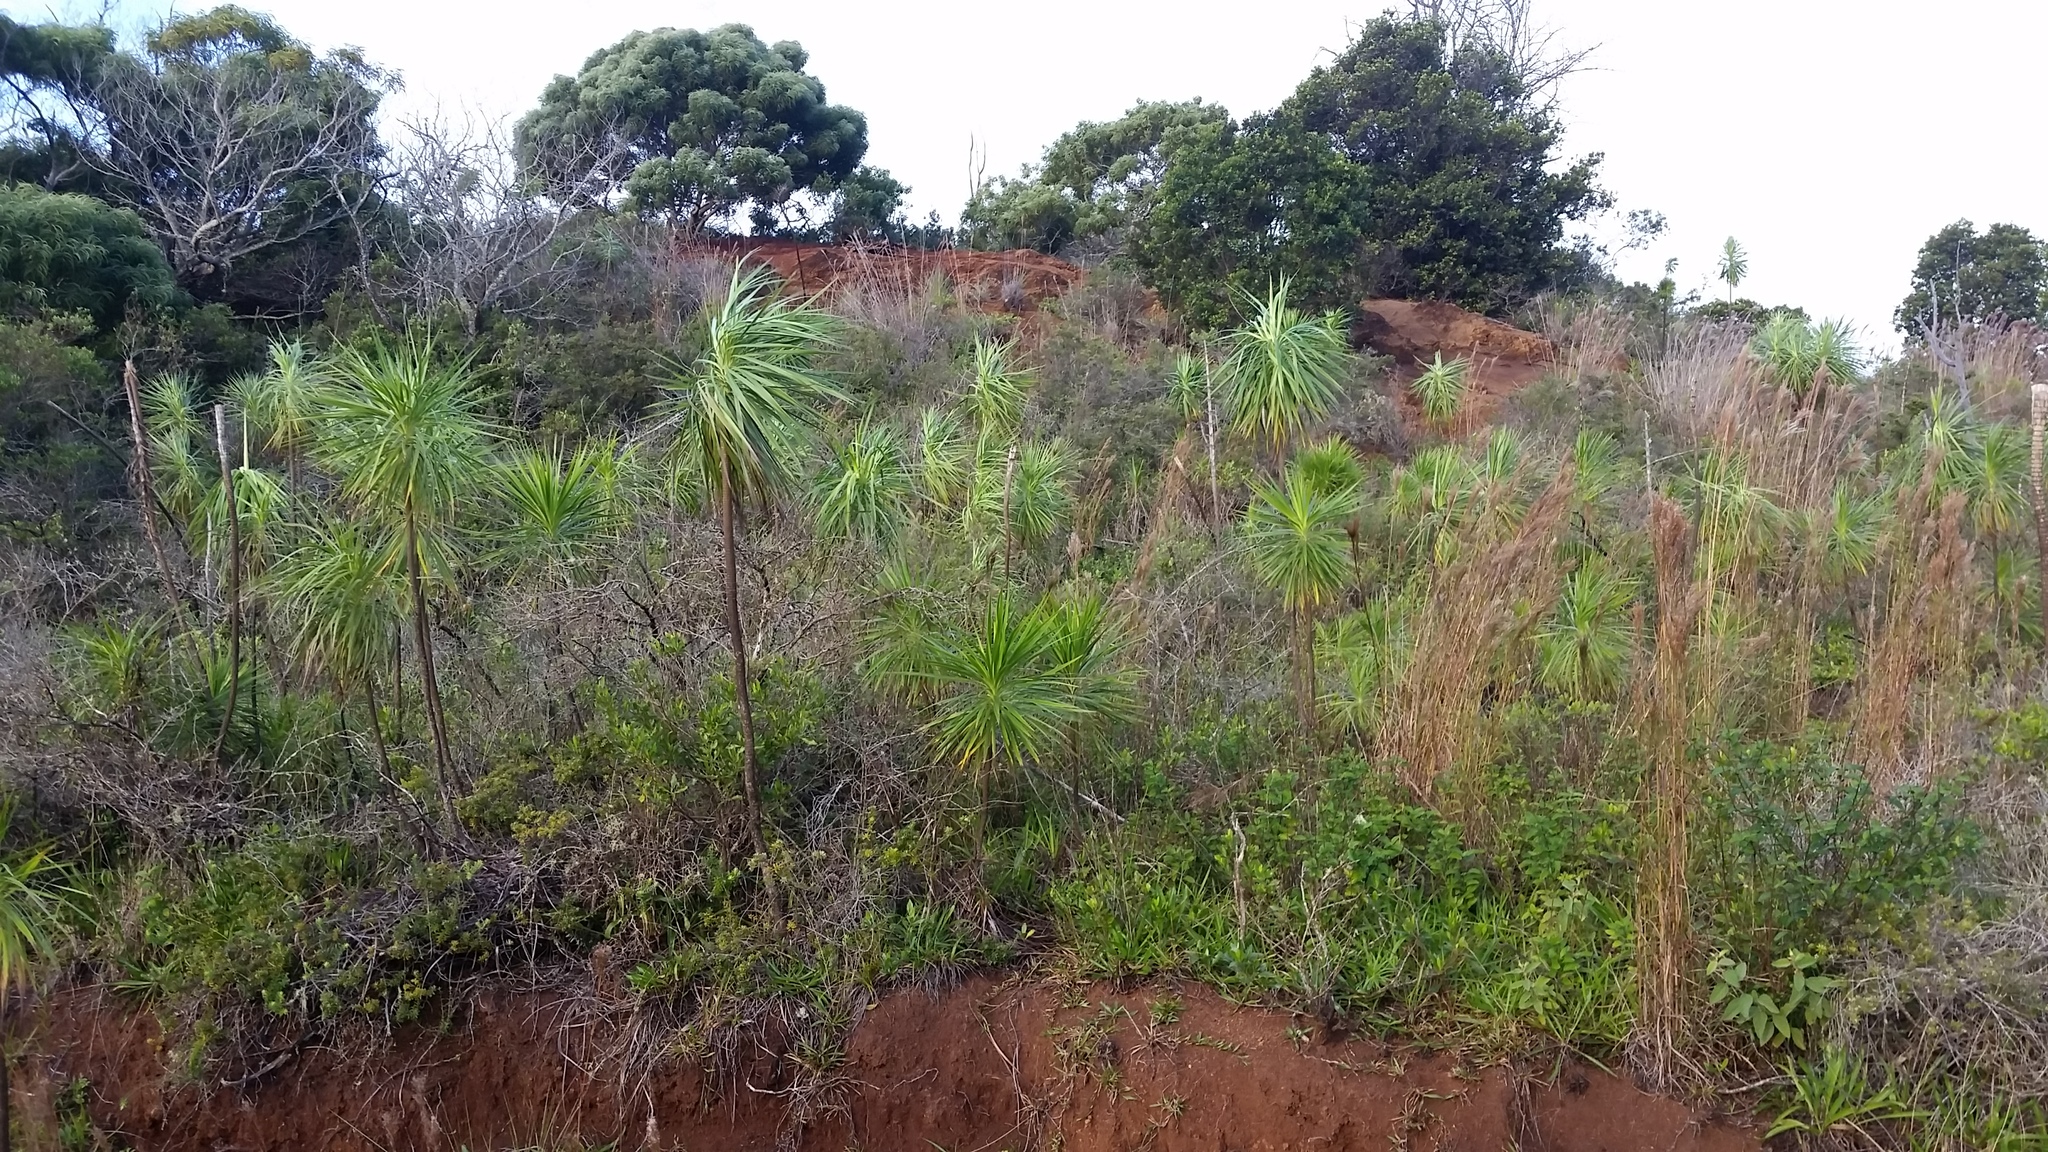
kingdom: Plantae
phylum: Tracheophyta
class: Magnoliopsida
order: Asterales
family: Asteraceae
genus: Wilkesia
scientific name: Wilkesia gymnoxiphium
